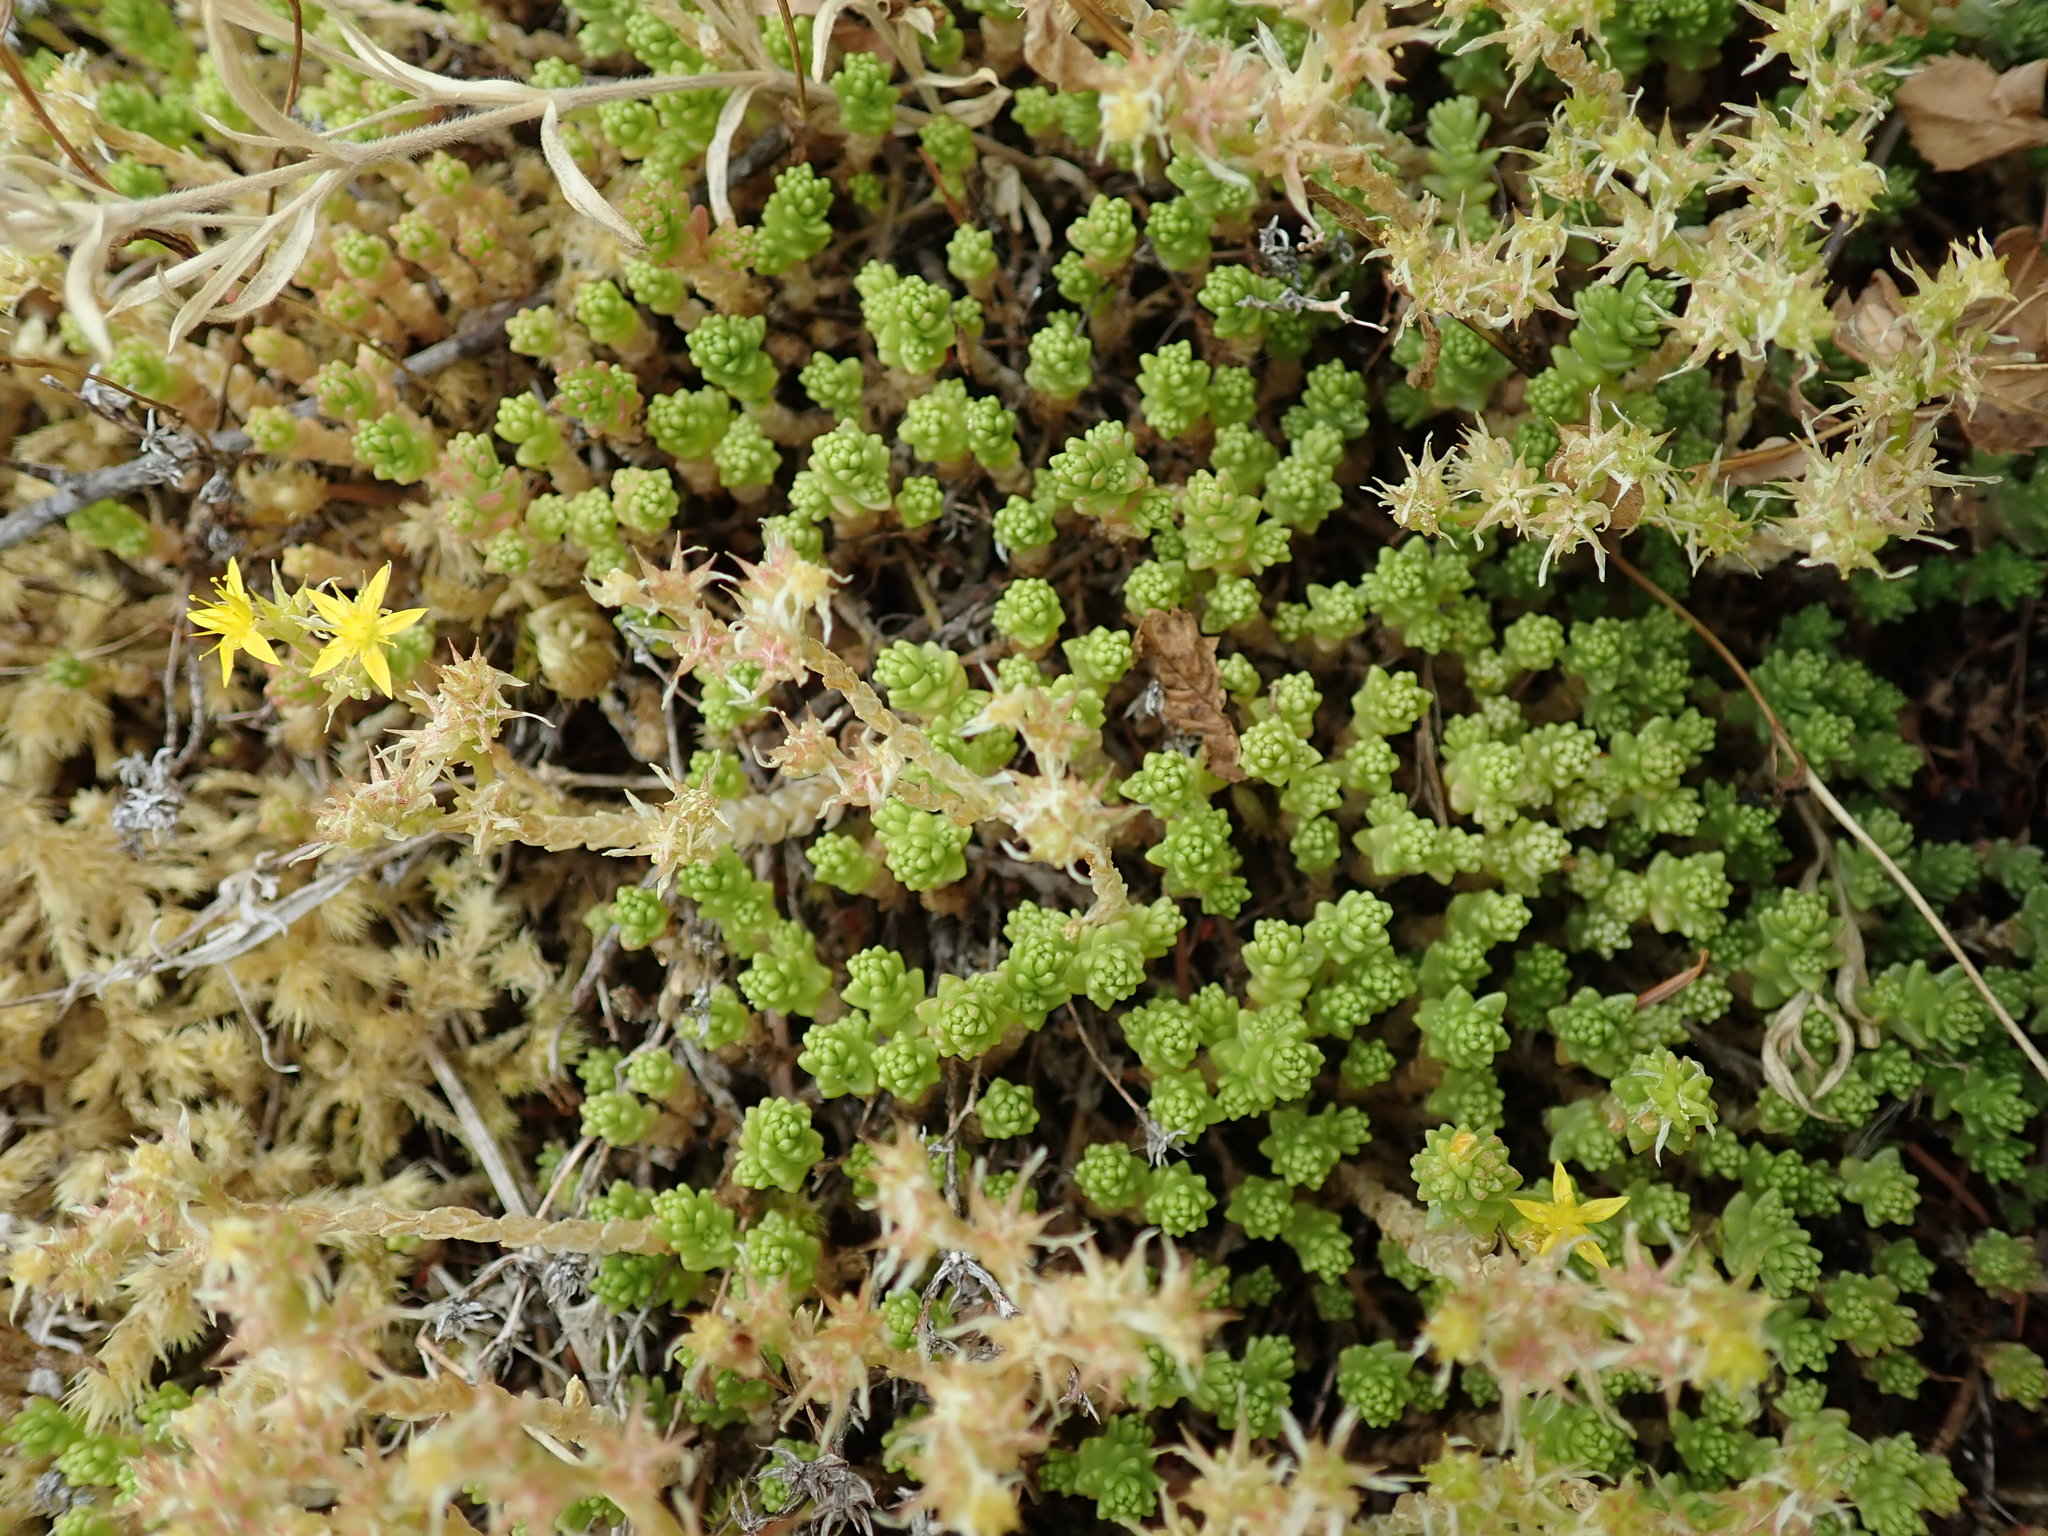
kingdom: Plantae
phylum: Tracheophyta
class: Magnoliopsida
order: Saxifragales
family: Crassulaceae
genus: Sedum
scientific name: Sedum acre
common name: Biting stonecrop
